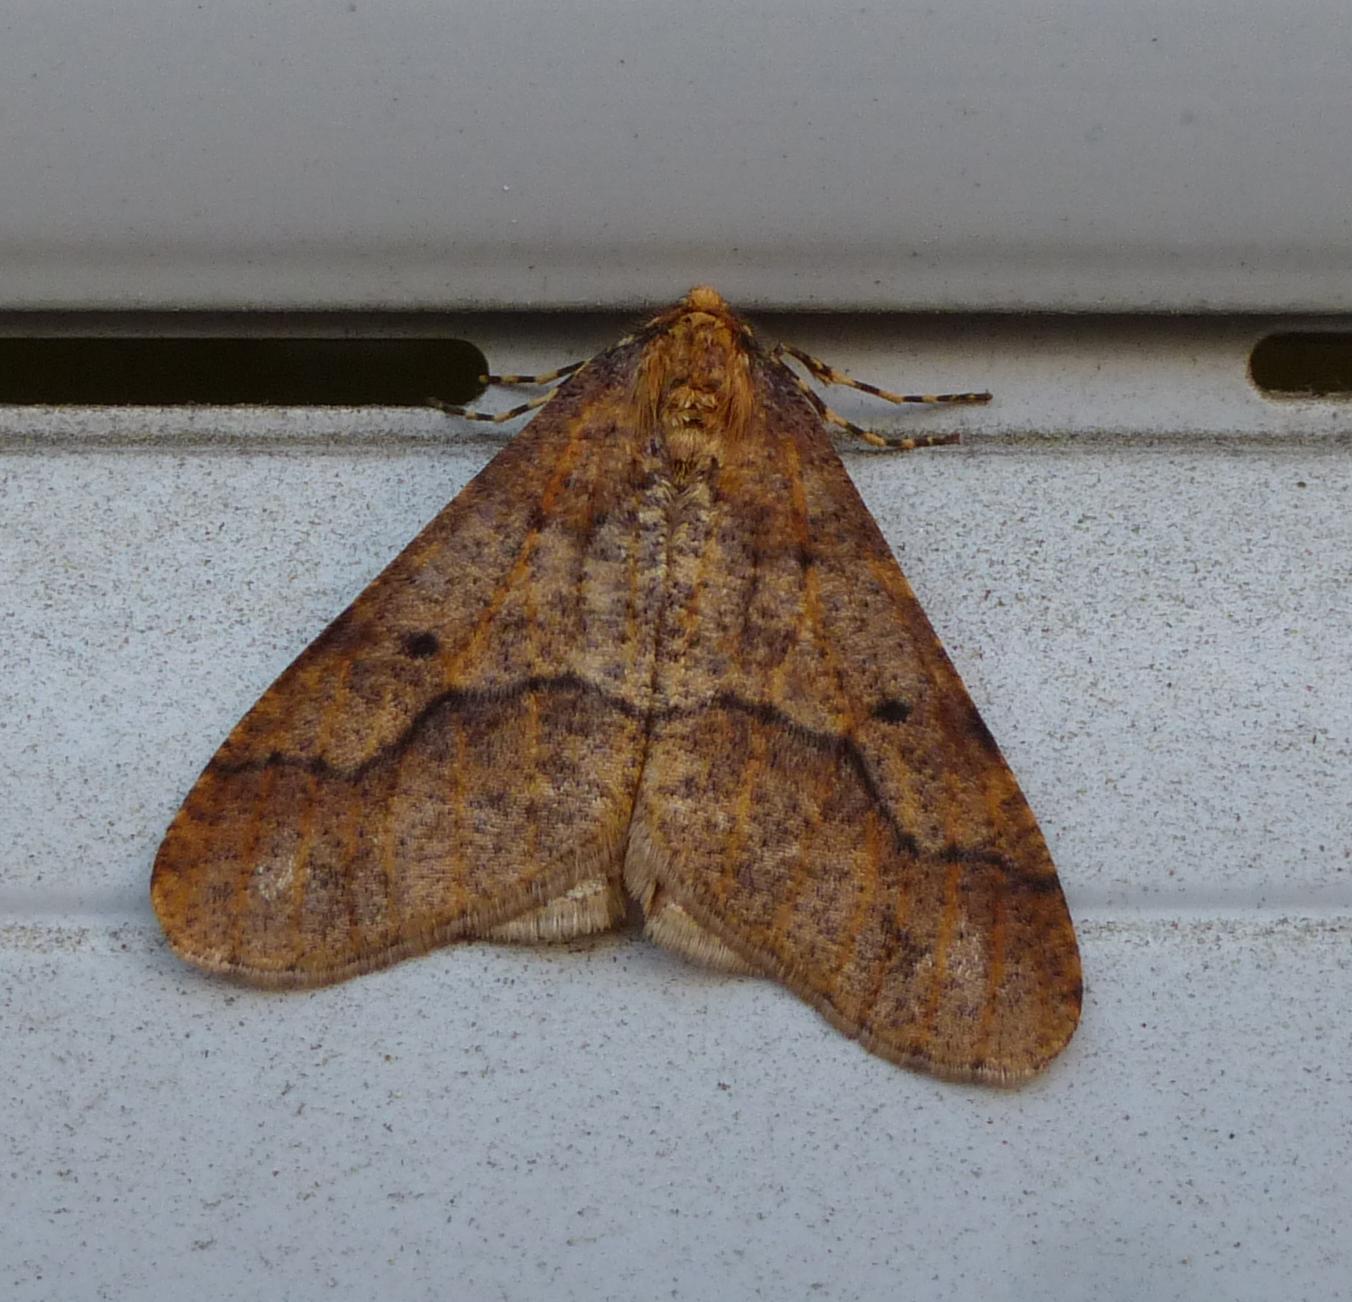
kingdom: Animalia
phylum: Arthropoda
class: Insecta
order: Lepidoptera
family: Geometridae
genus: Erannis
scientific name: Erannis defoliaria
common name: Mottled umber
